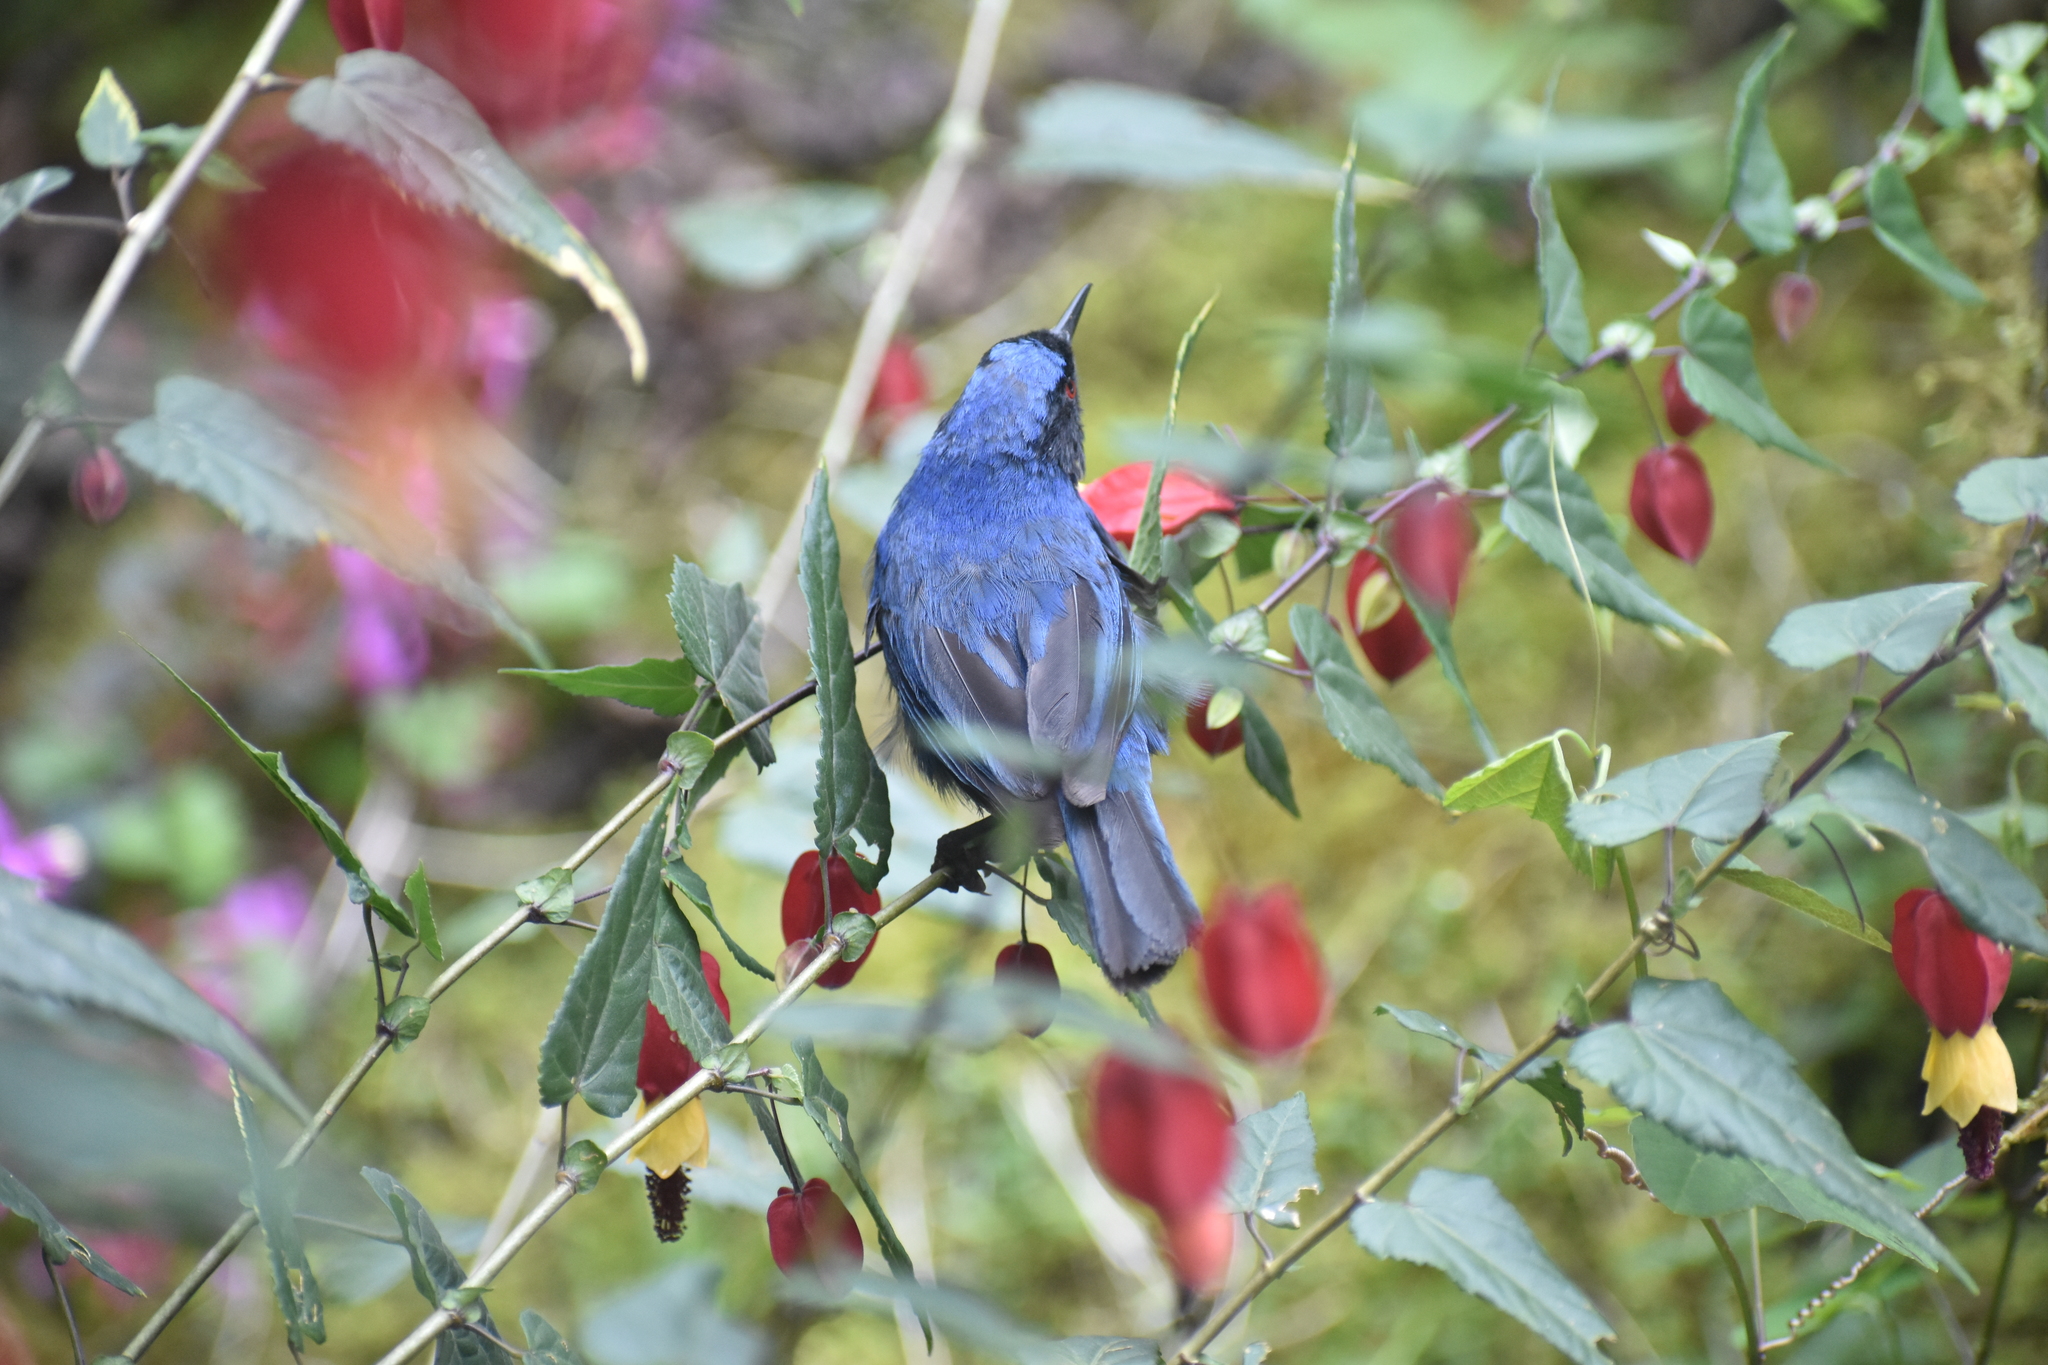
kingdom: Animalia
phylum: Chordata
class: Aves
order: Passeriformes
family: Thraupidae
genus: Diglossa
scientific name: Diglossa cyanea
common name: Masked flowerpiercer
